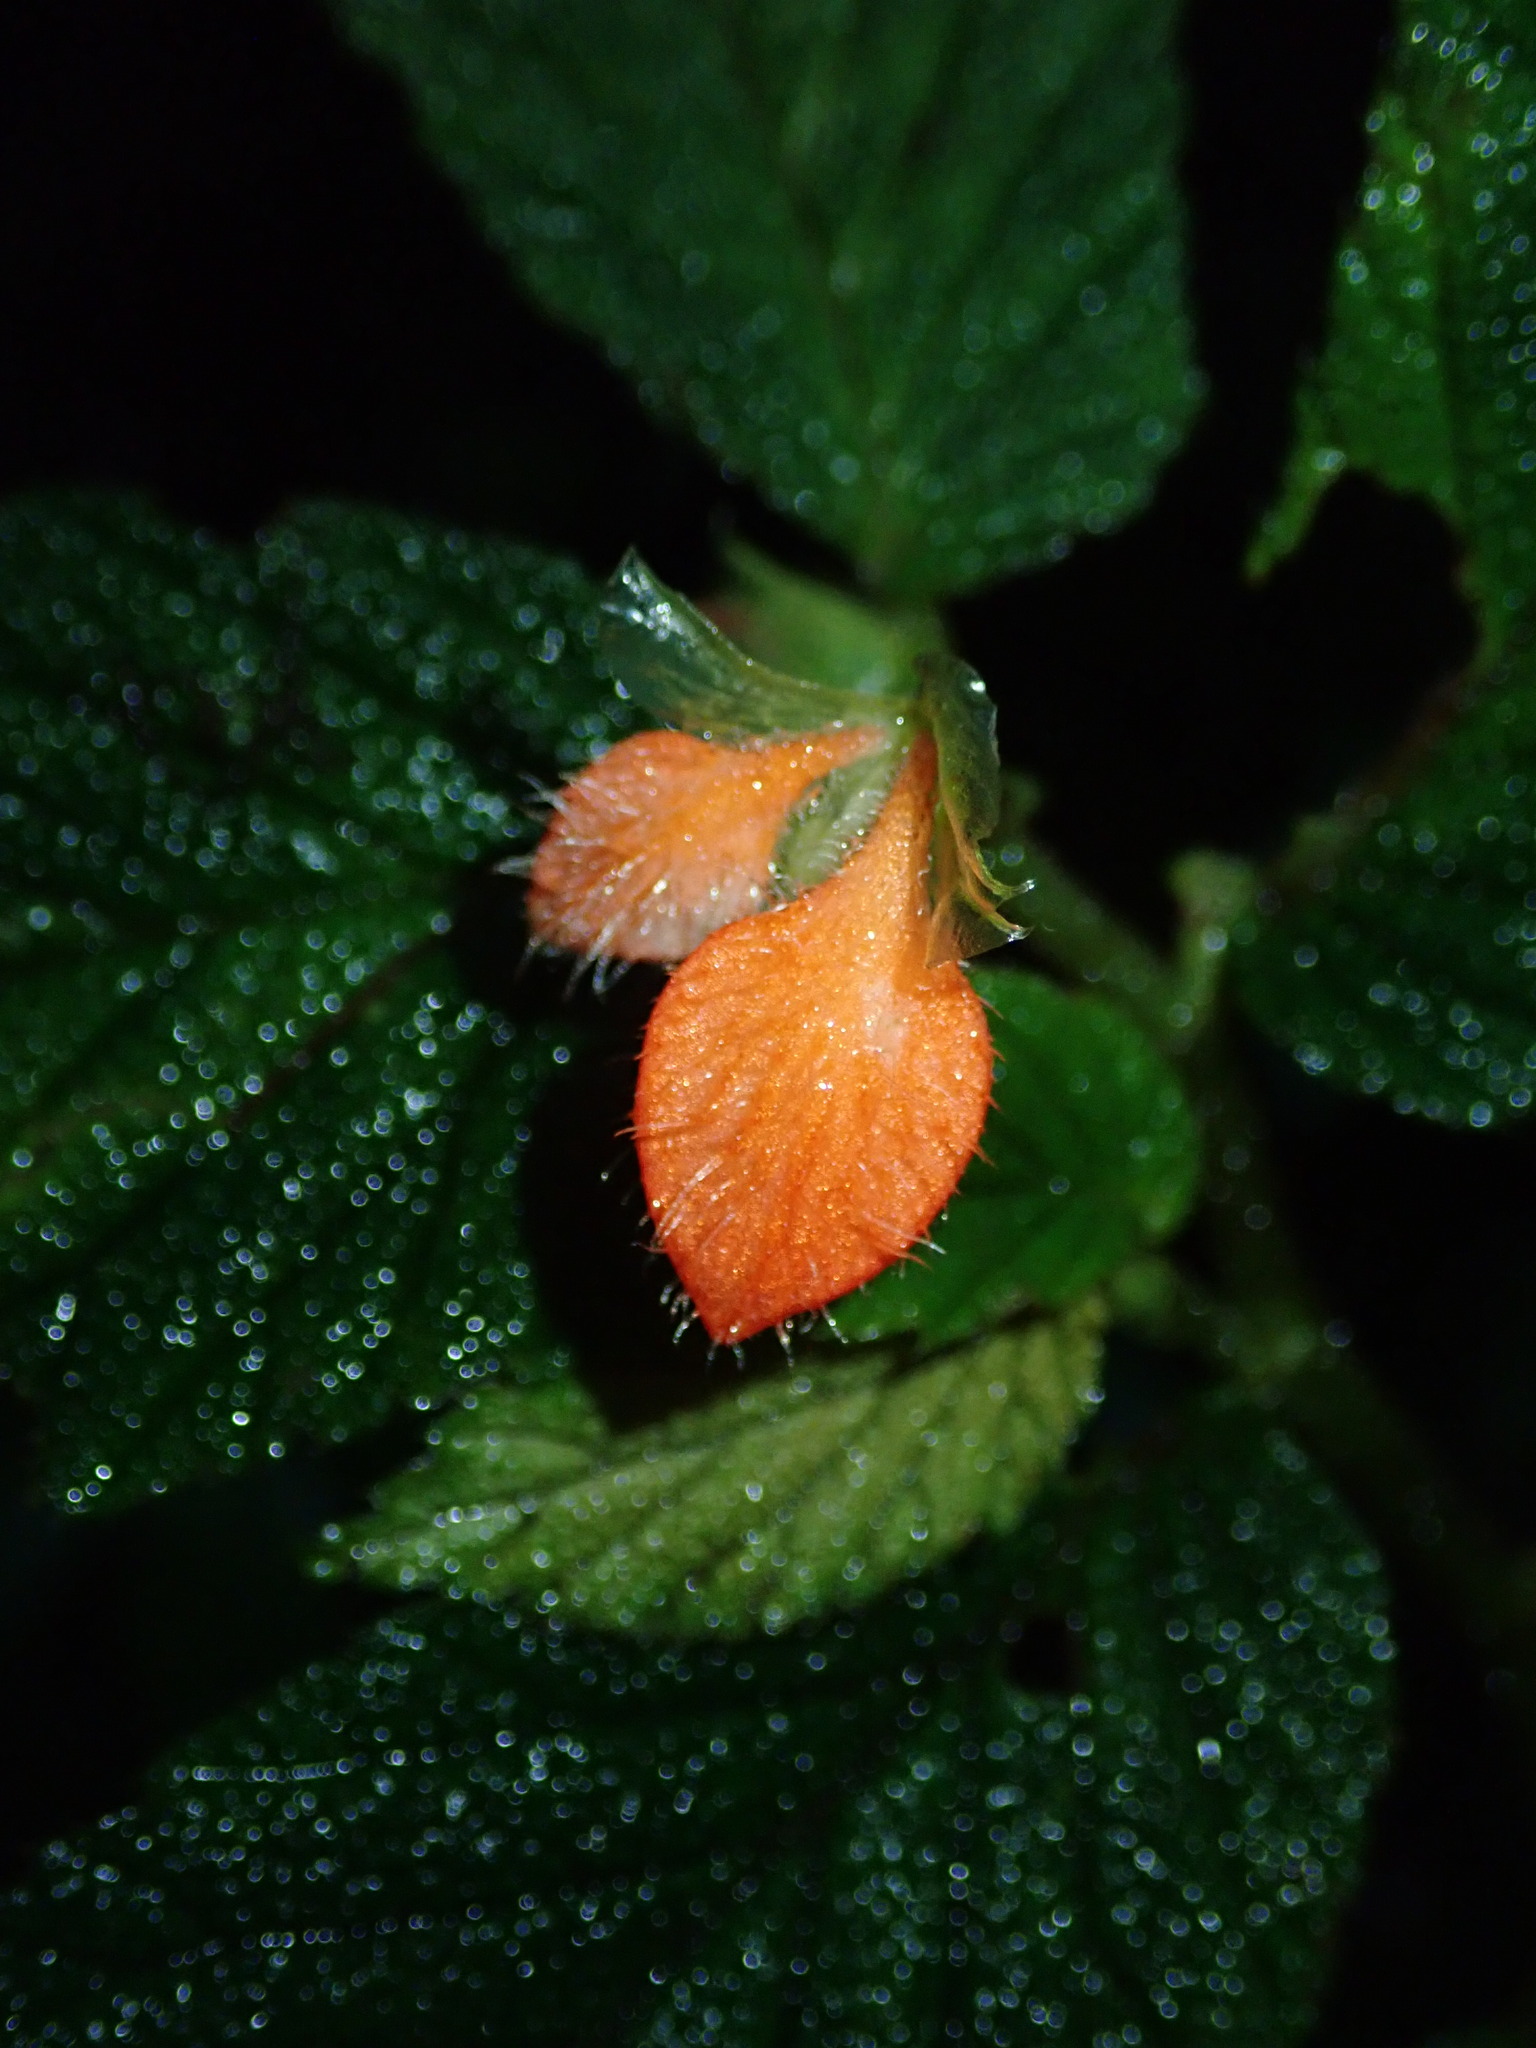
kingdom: Plantae
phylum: Tracheophyta
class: Magnoliopsida
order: Cucurbitales
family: Begoniaceae
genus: Begonia
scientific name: Begonia pectennervia
